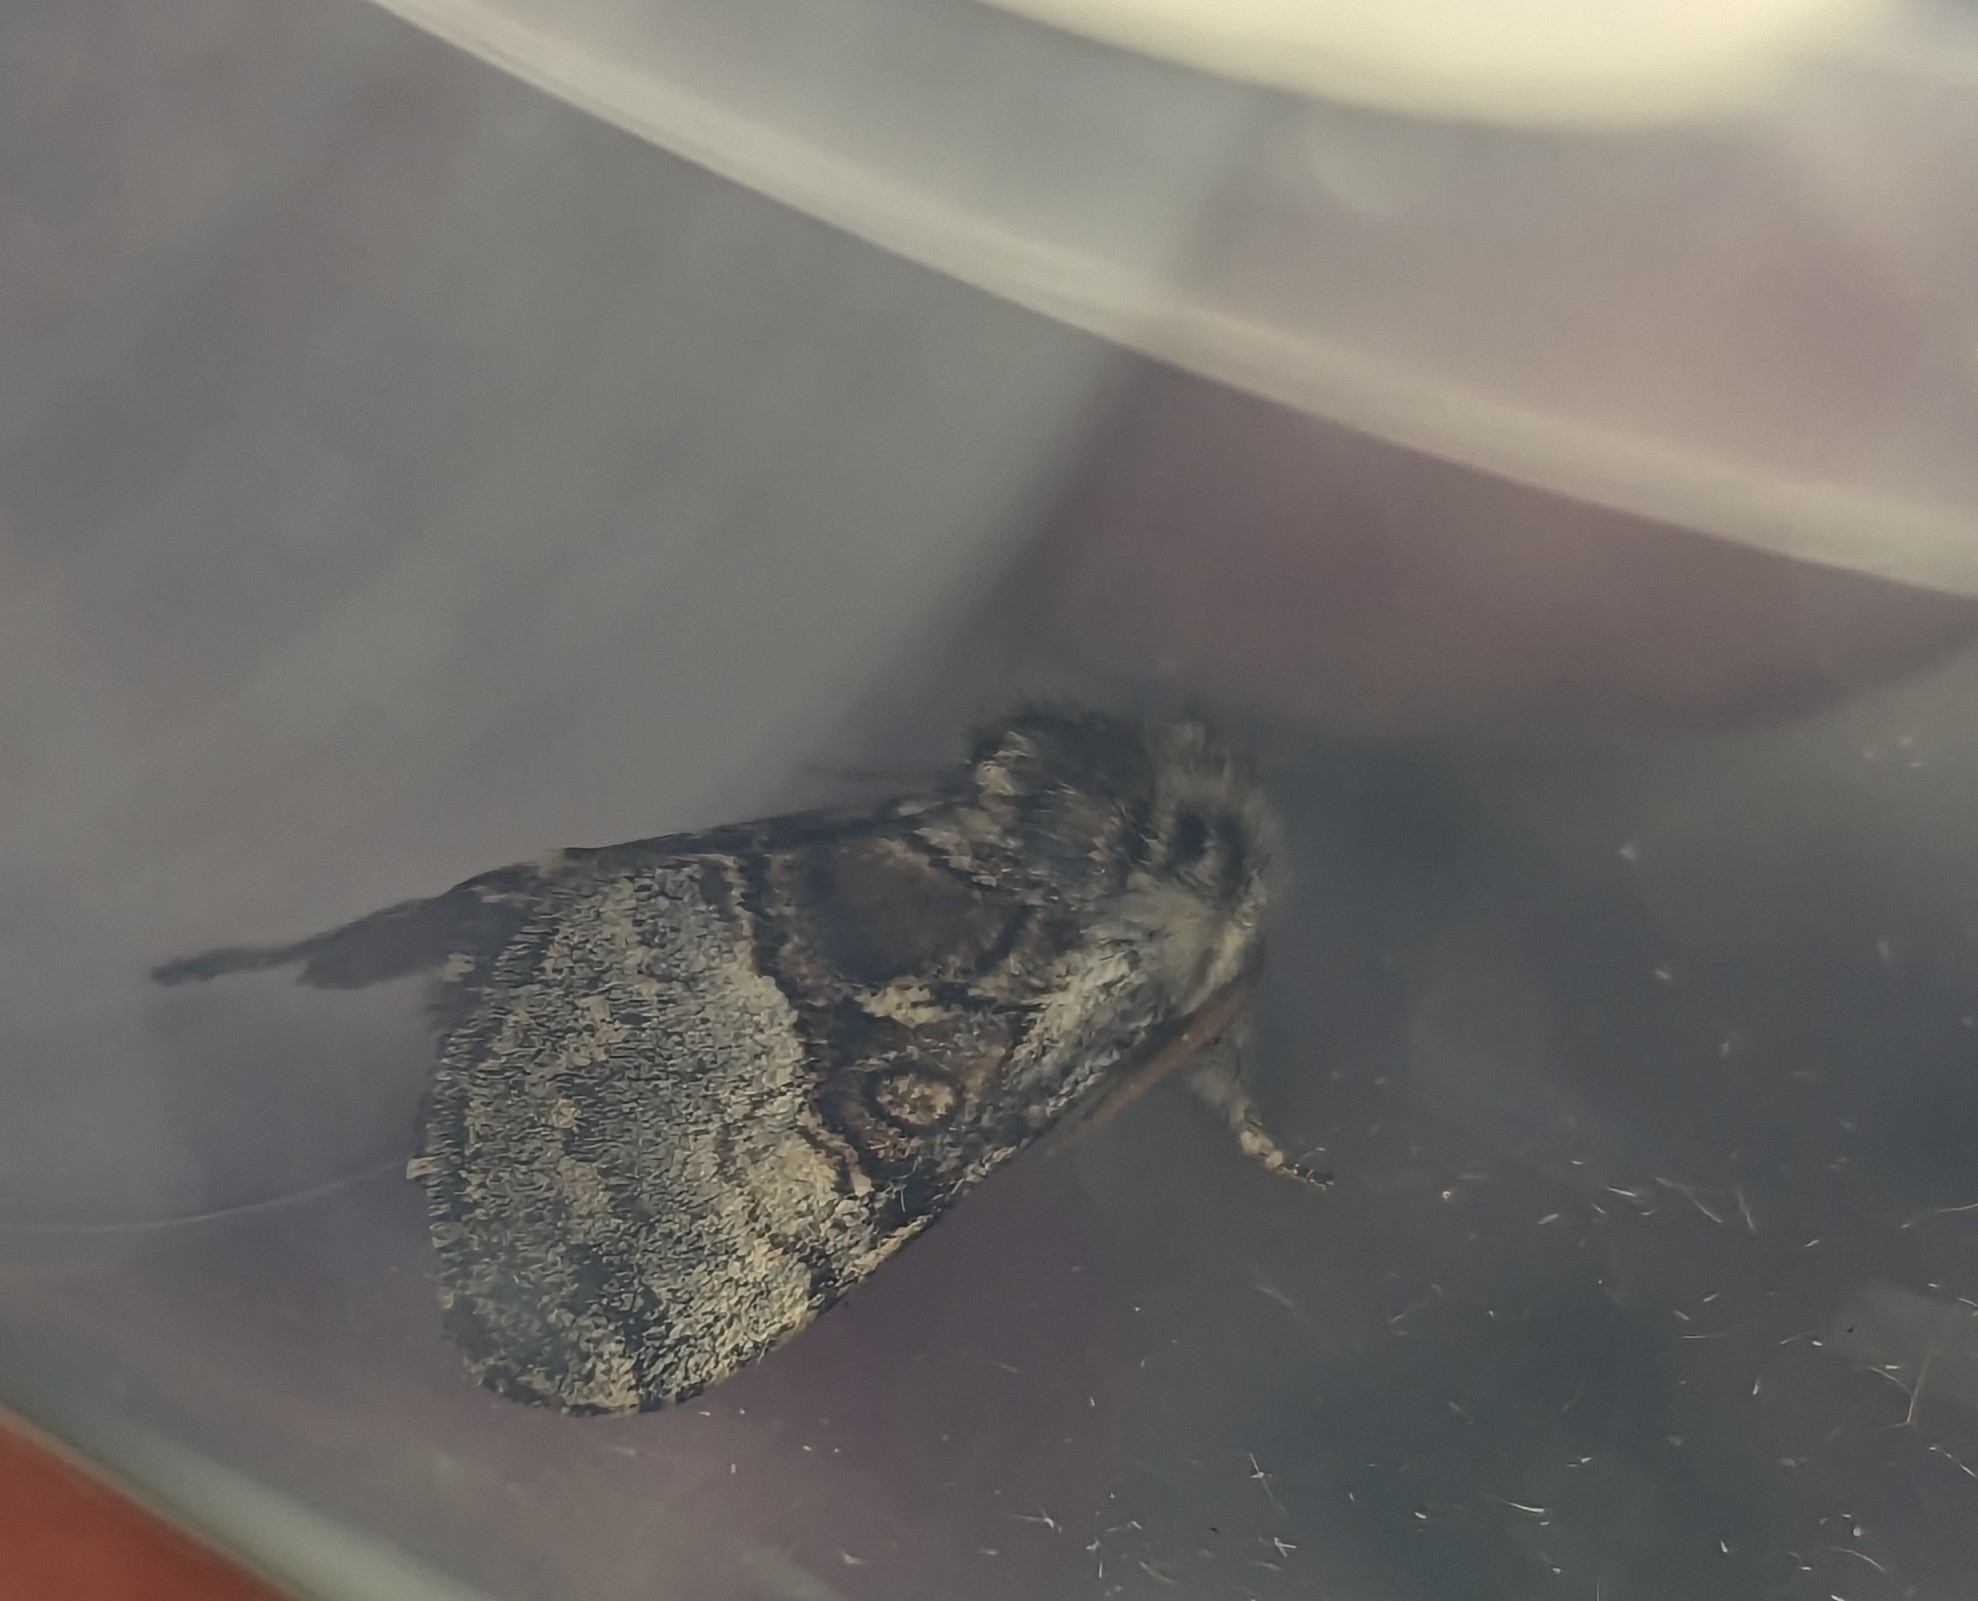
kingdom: Animalia
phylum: Arthropoda
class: Insecta
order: Lepidoptera
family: Noctuidae
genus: Colocasia
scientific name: Colocasia coryli
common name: Nut-tree tussock
